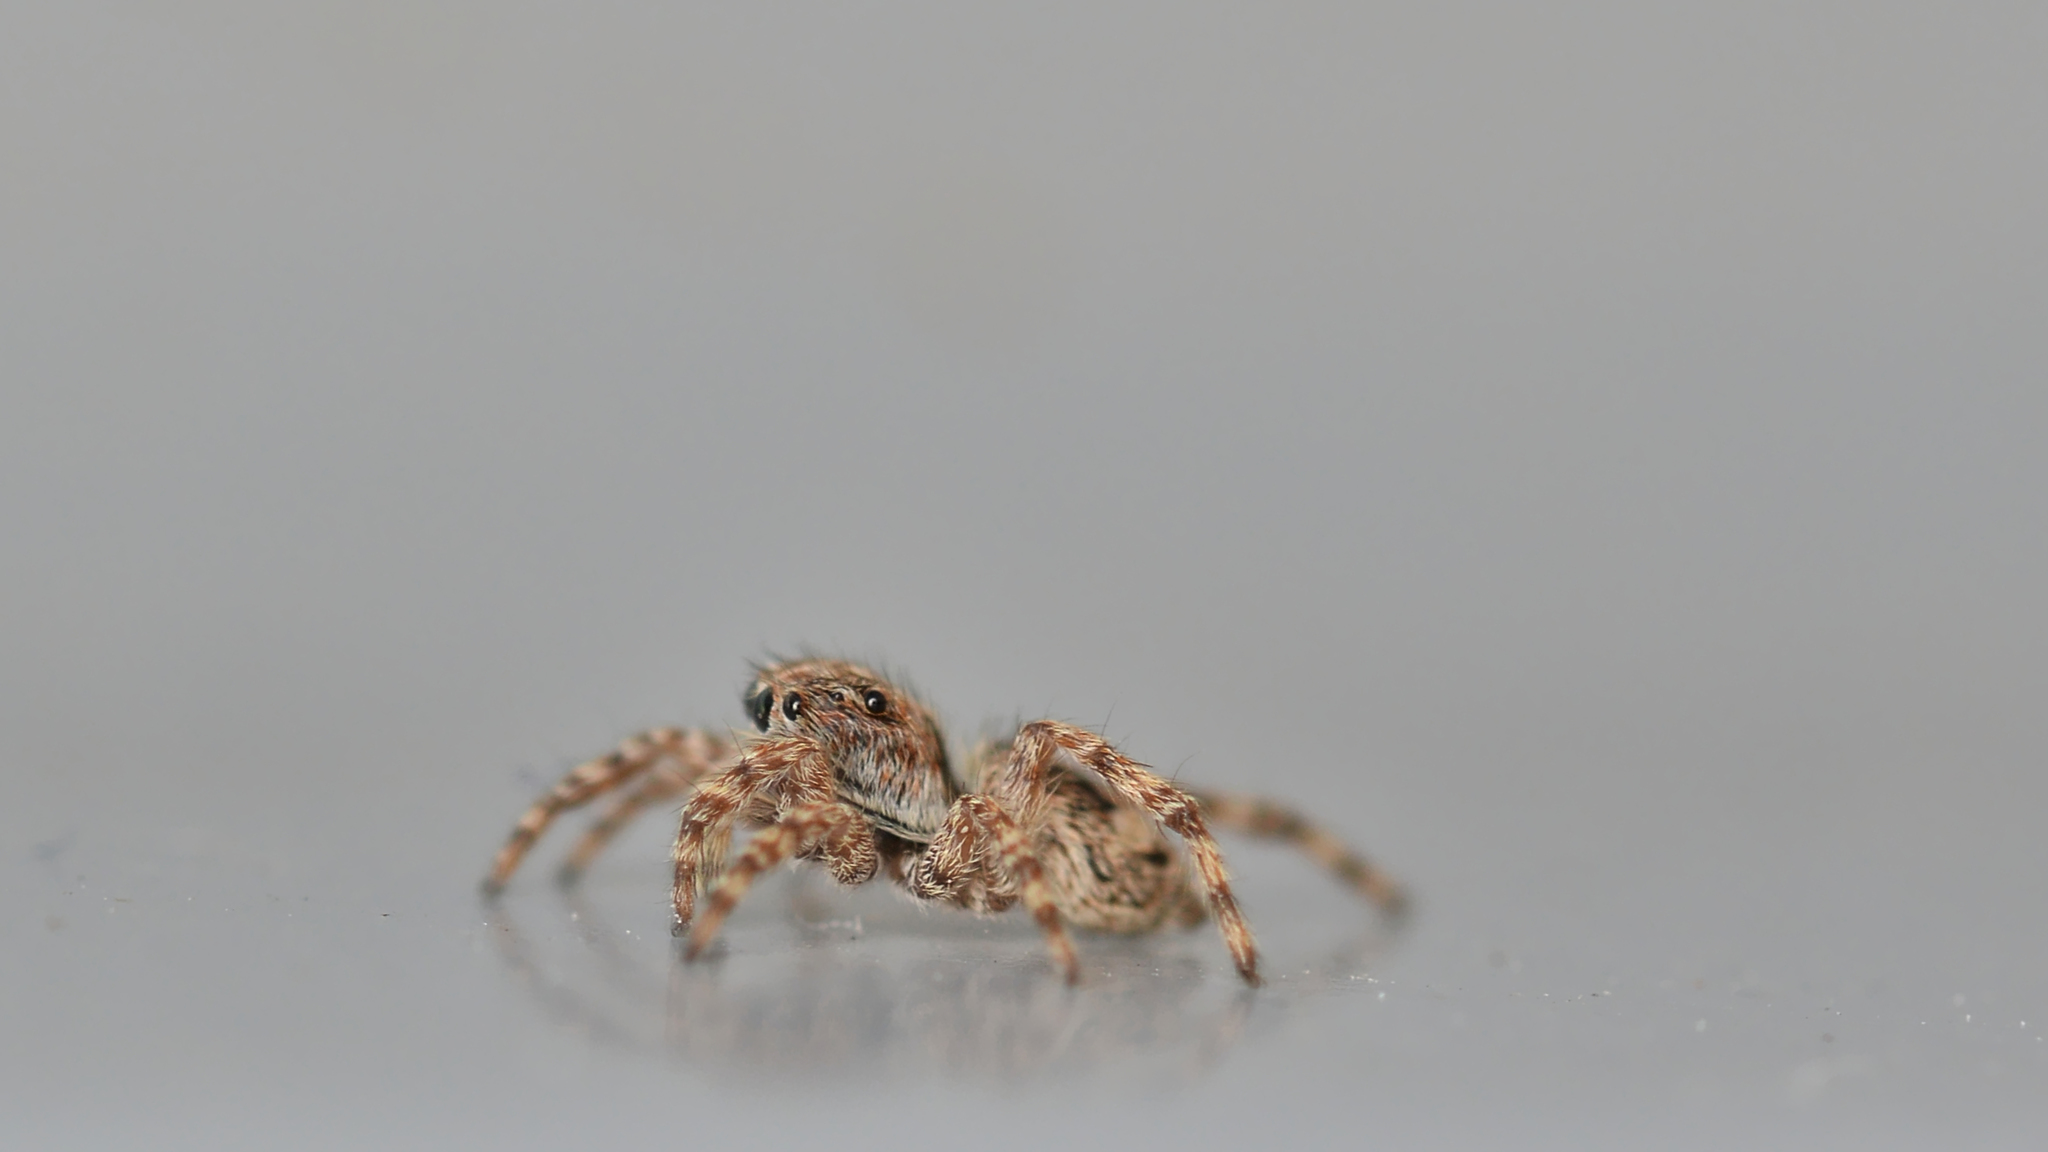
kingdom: Animalia
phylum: Arthropoda
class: Arachnida
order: Araneae
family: Salticidae
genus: Attulus
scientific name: Attulus fasciger
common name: Asiatic wall jumping spider
